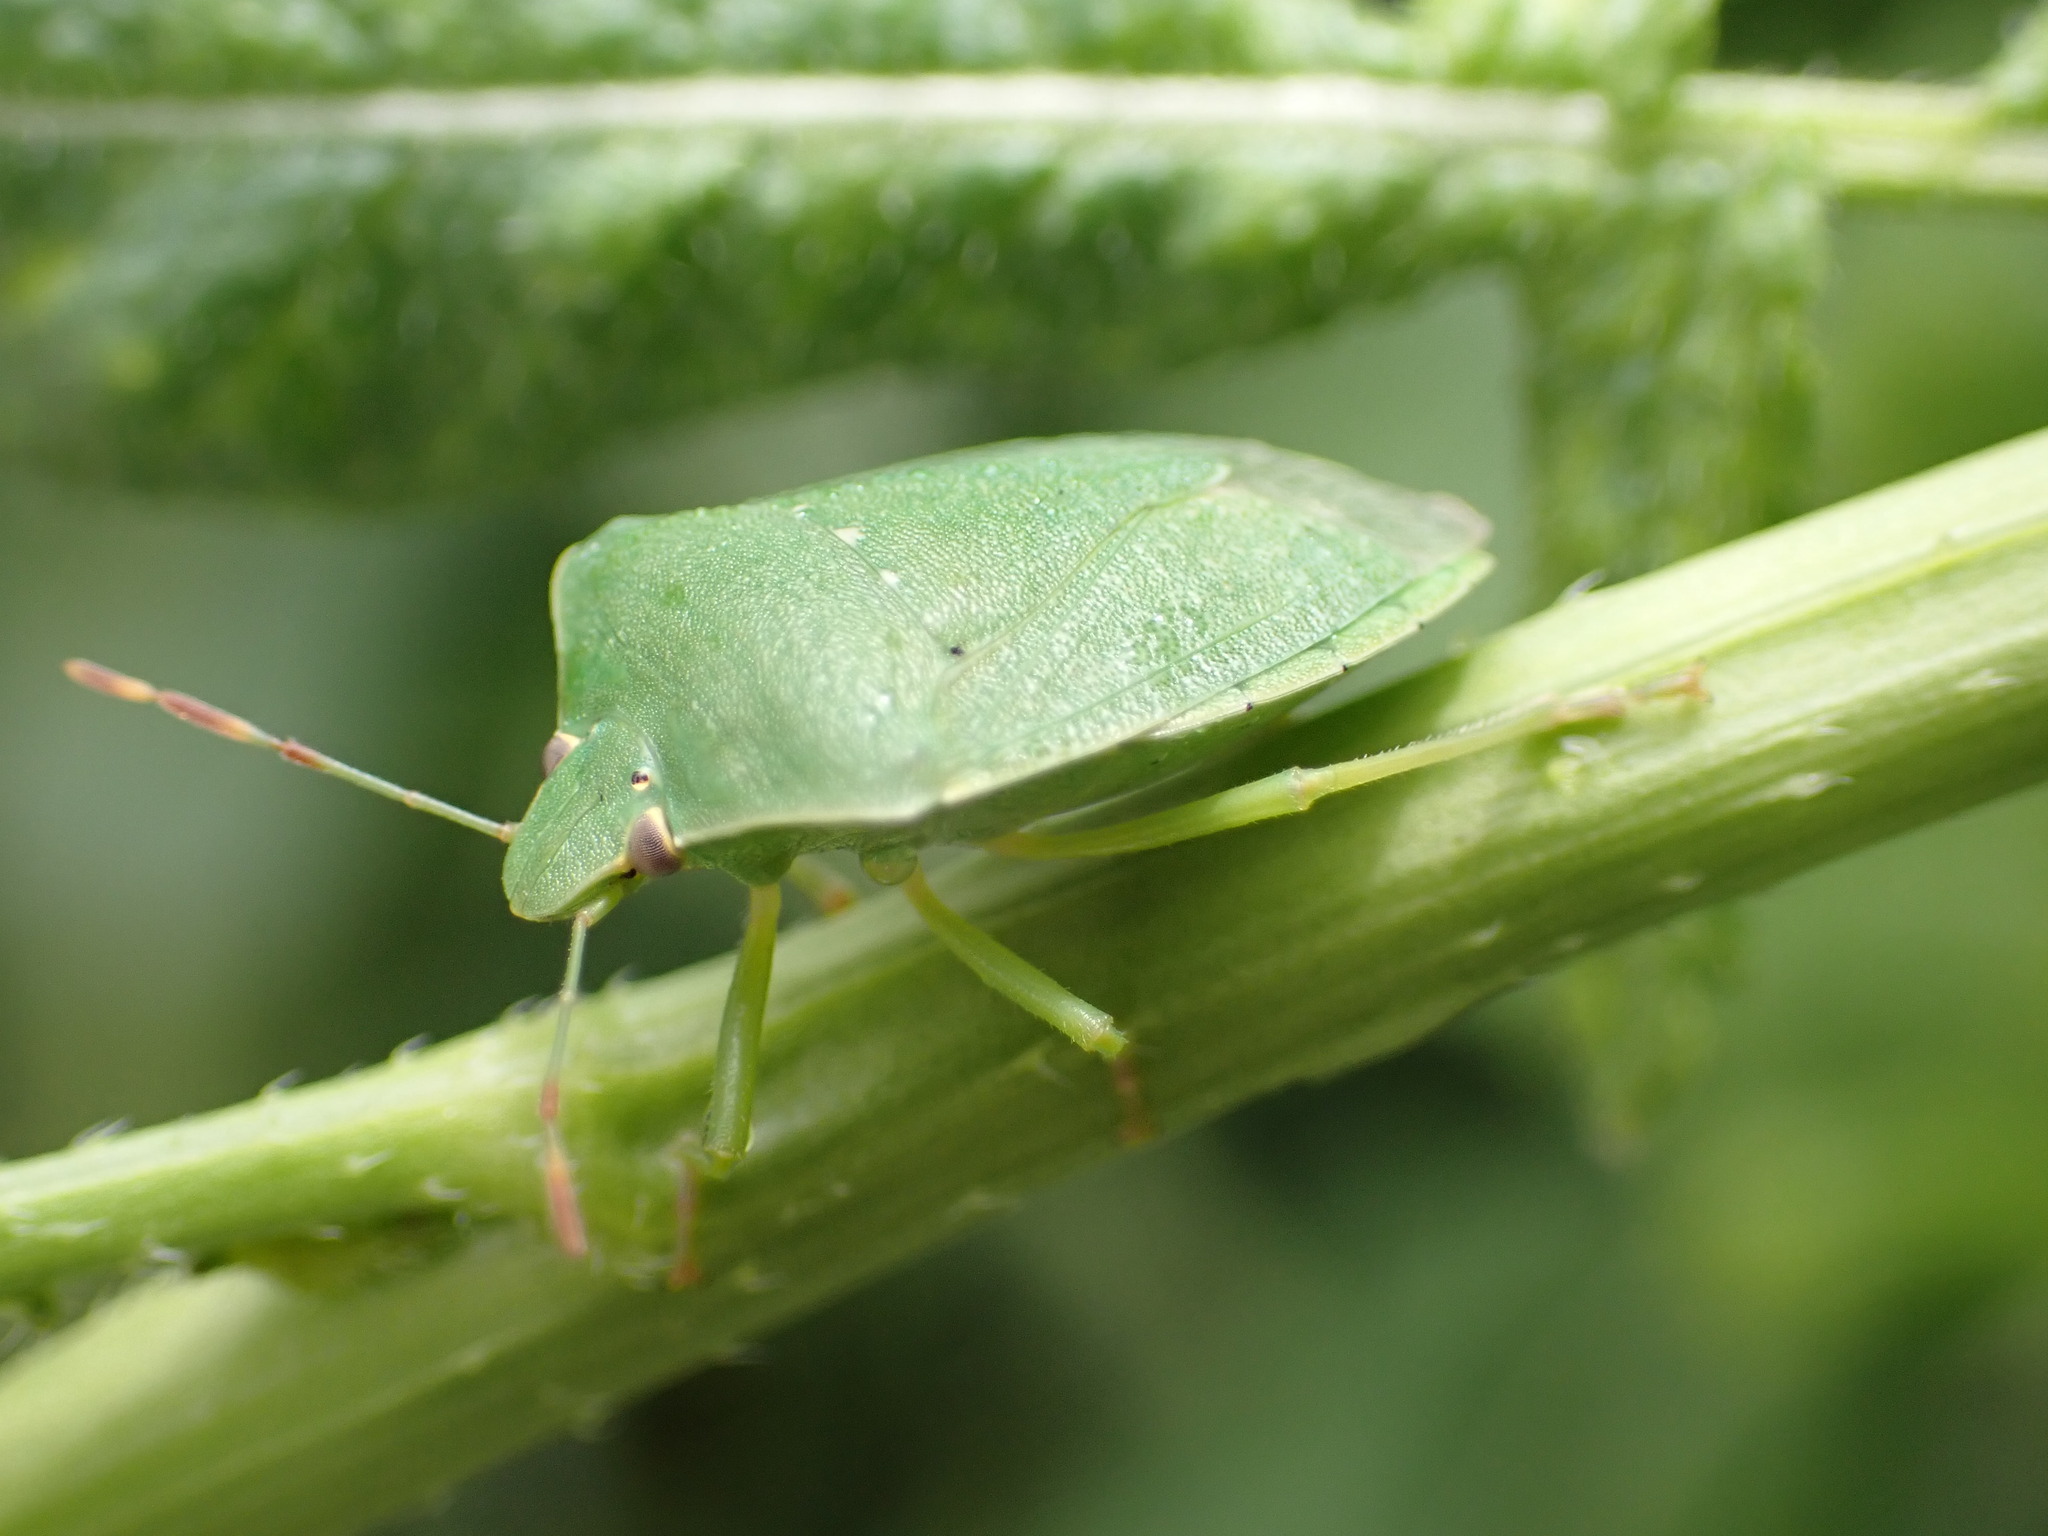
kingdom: Animalia
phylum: Arthropoda
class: Insecta
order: Hemiptera
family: Pentatomidae
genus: Nezara
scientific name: Nezara viridula
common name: Southern green stink bug
